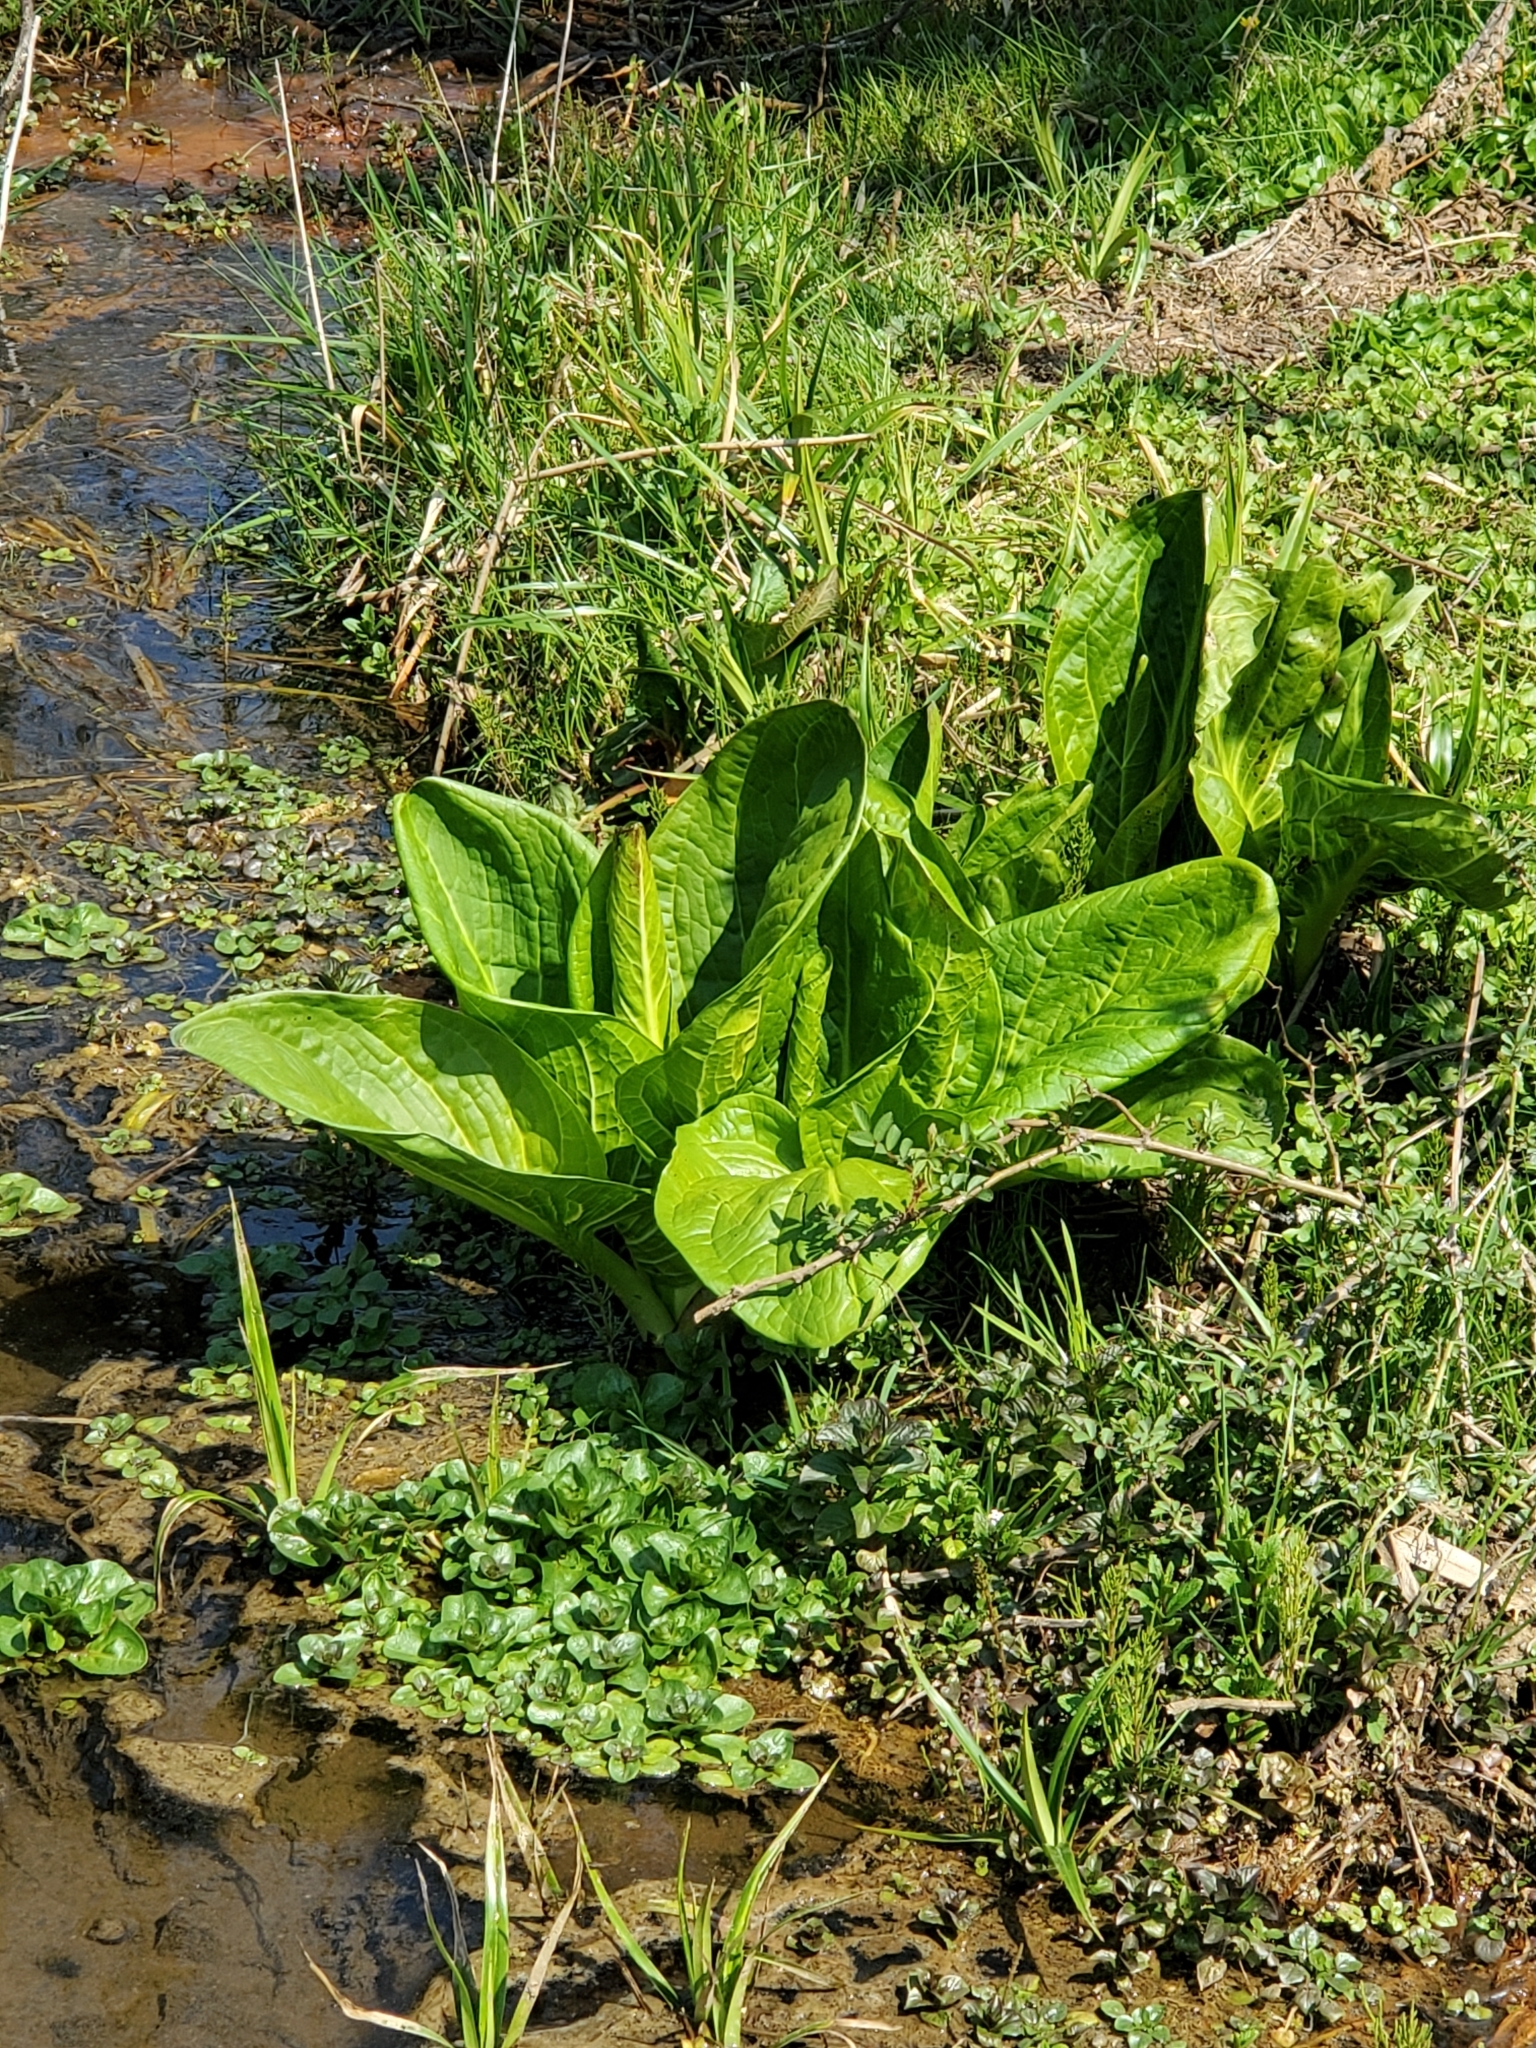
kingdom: Plantae
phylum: Tracheophyta
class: Liliopsida
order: Alismatales
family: Araceae
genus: Symplocarpus
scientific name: Symplocarpus foetidus
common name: Eastern skunk cabbage
